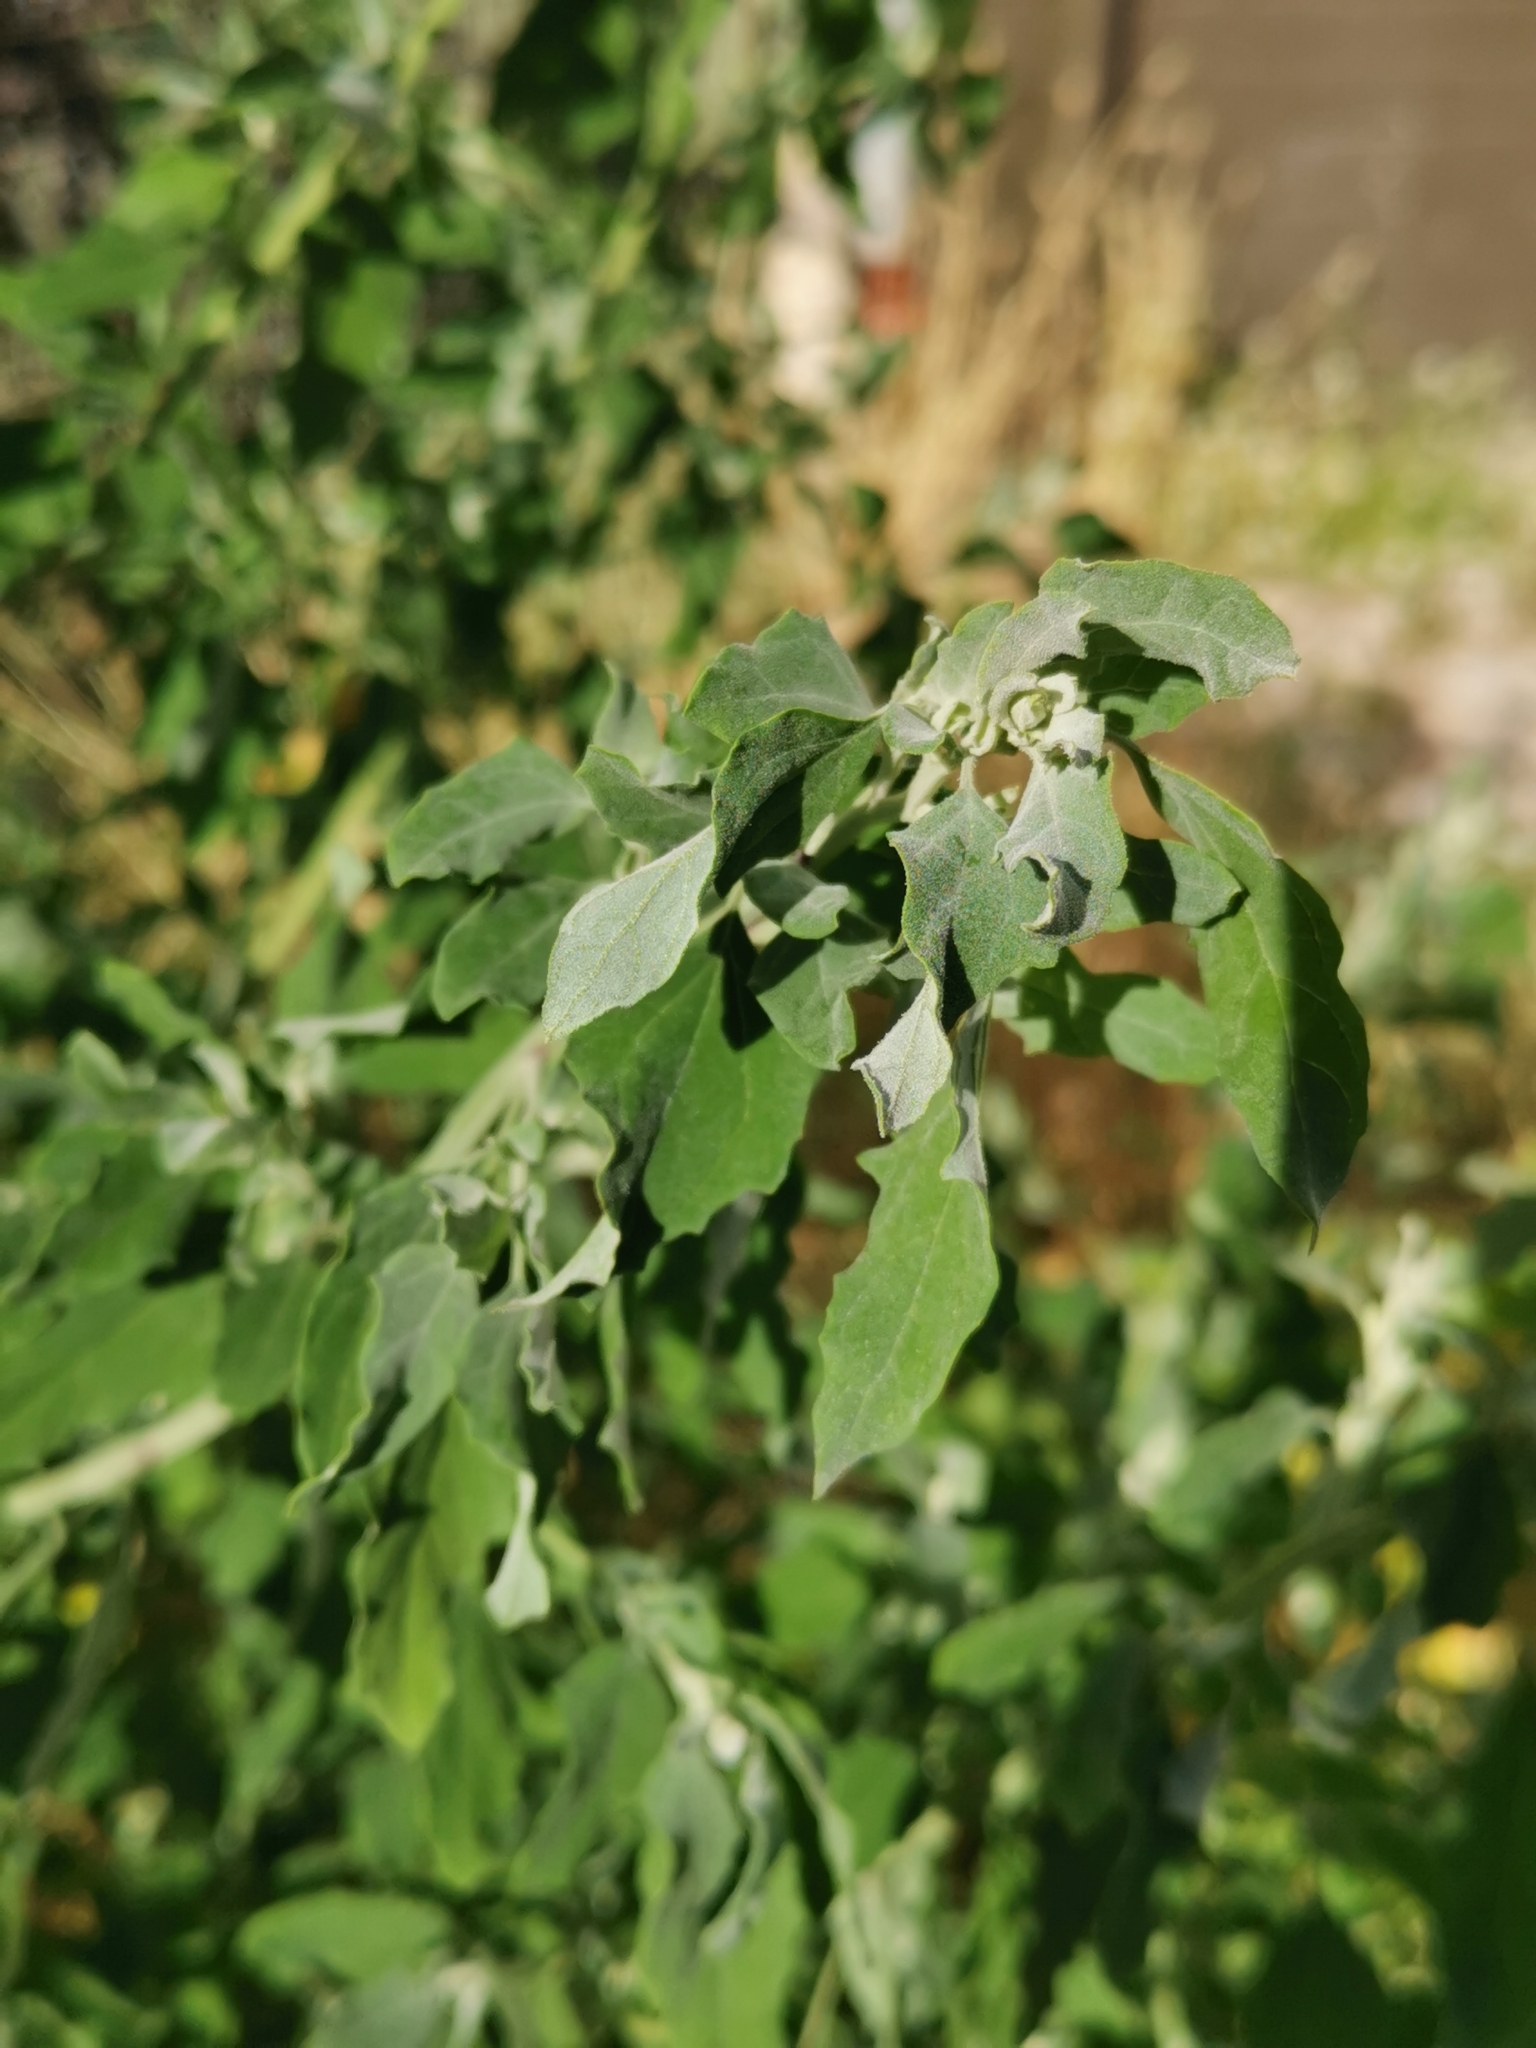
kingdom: Plantae
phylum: Tracheophyta
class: Magnoliopsida
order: Caryophyllales
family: Amaranthaceae
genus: Chenopodium
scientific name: Chenopodium album
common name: Fat-hen
